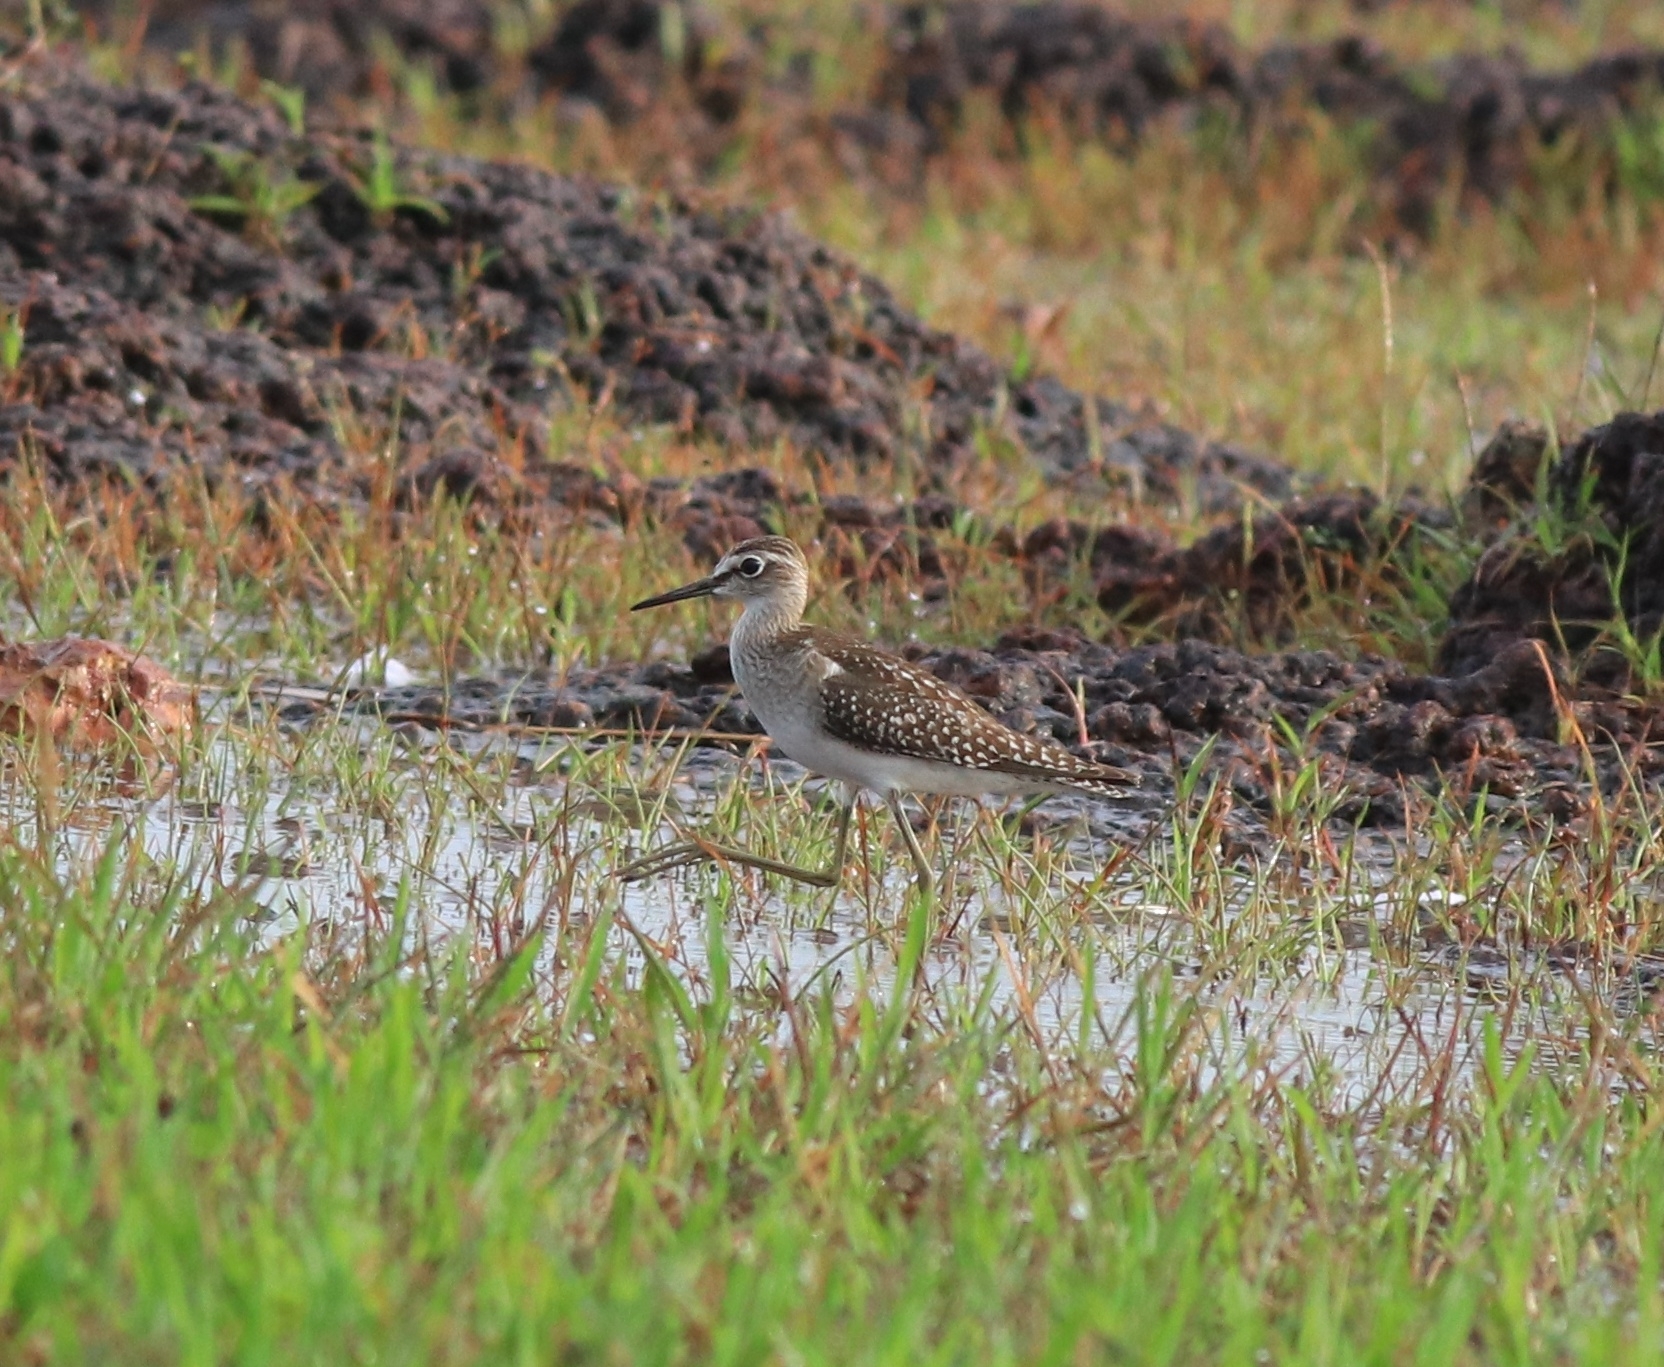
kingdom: Animalia
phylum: Chordata
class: Aves
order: Charadriiformes
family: Scolopacidae
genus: Tringa
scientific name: Tringa glareola
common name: Wood sandpiper
